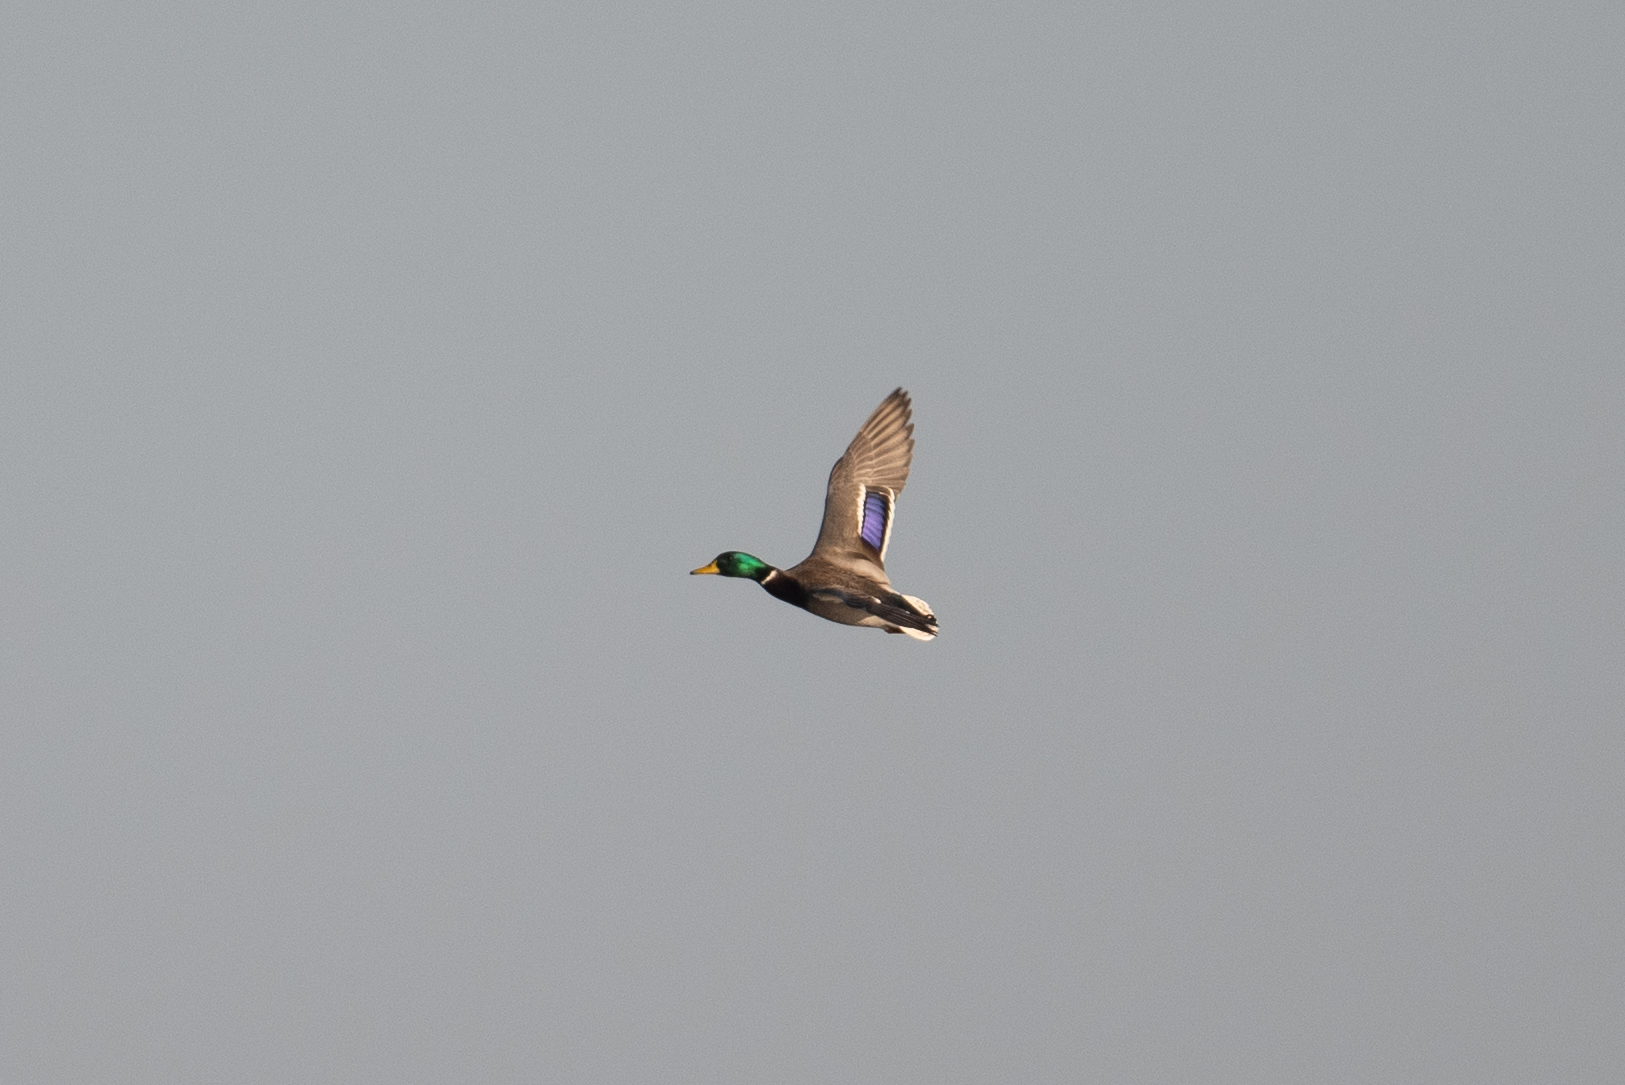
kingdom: Animalia
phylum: Chordata
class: Aves
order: Anseriformes
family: Anatidae
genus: Anas
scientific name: Anas platyrhynchos
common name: Mallard
